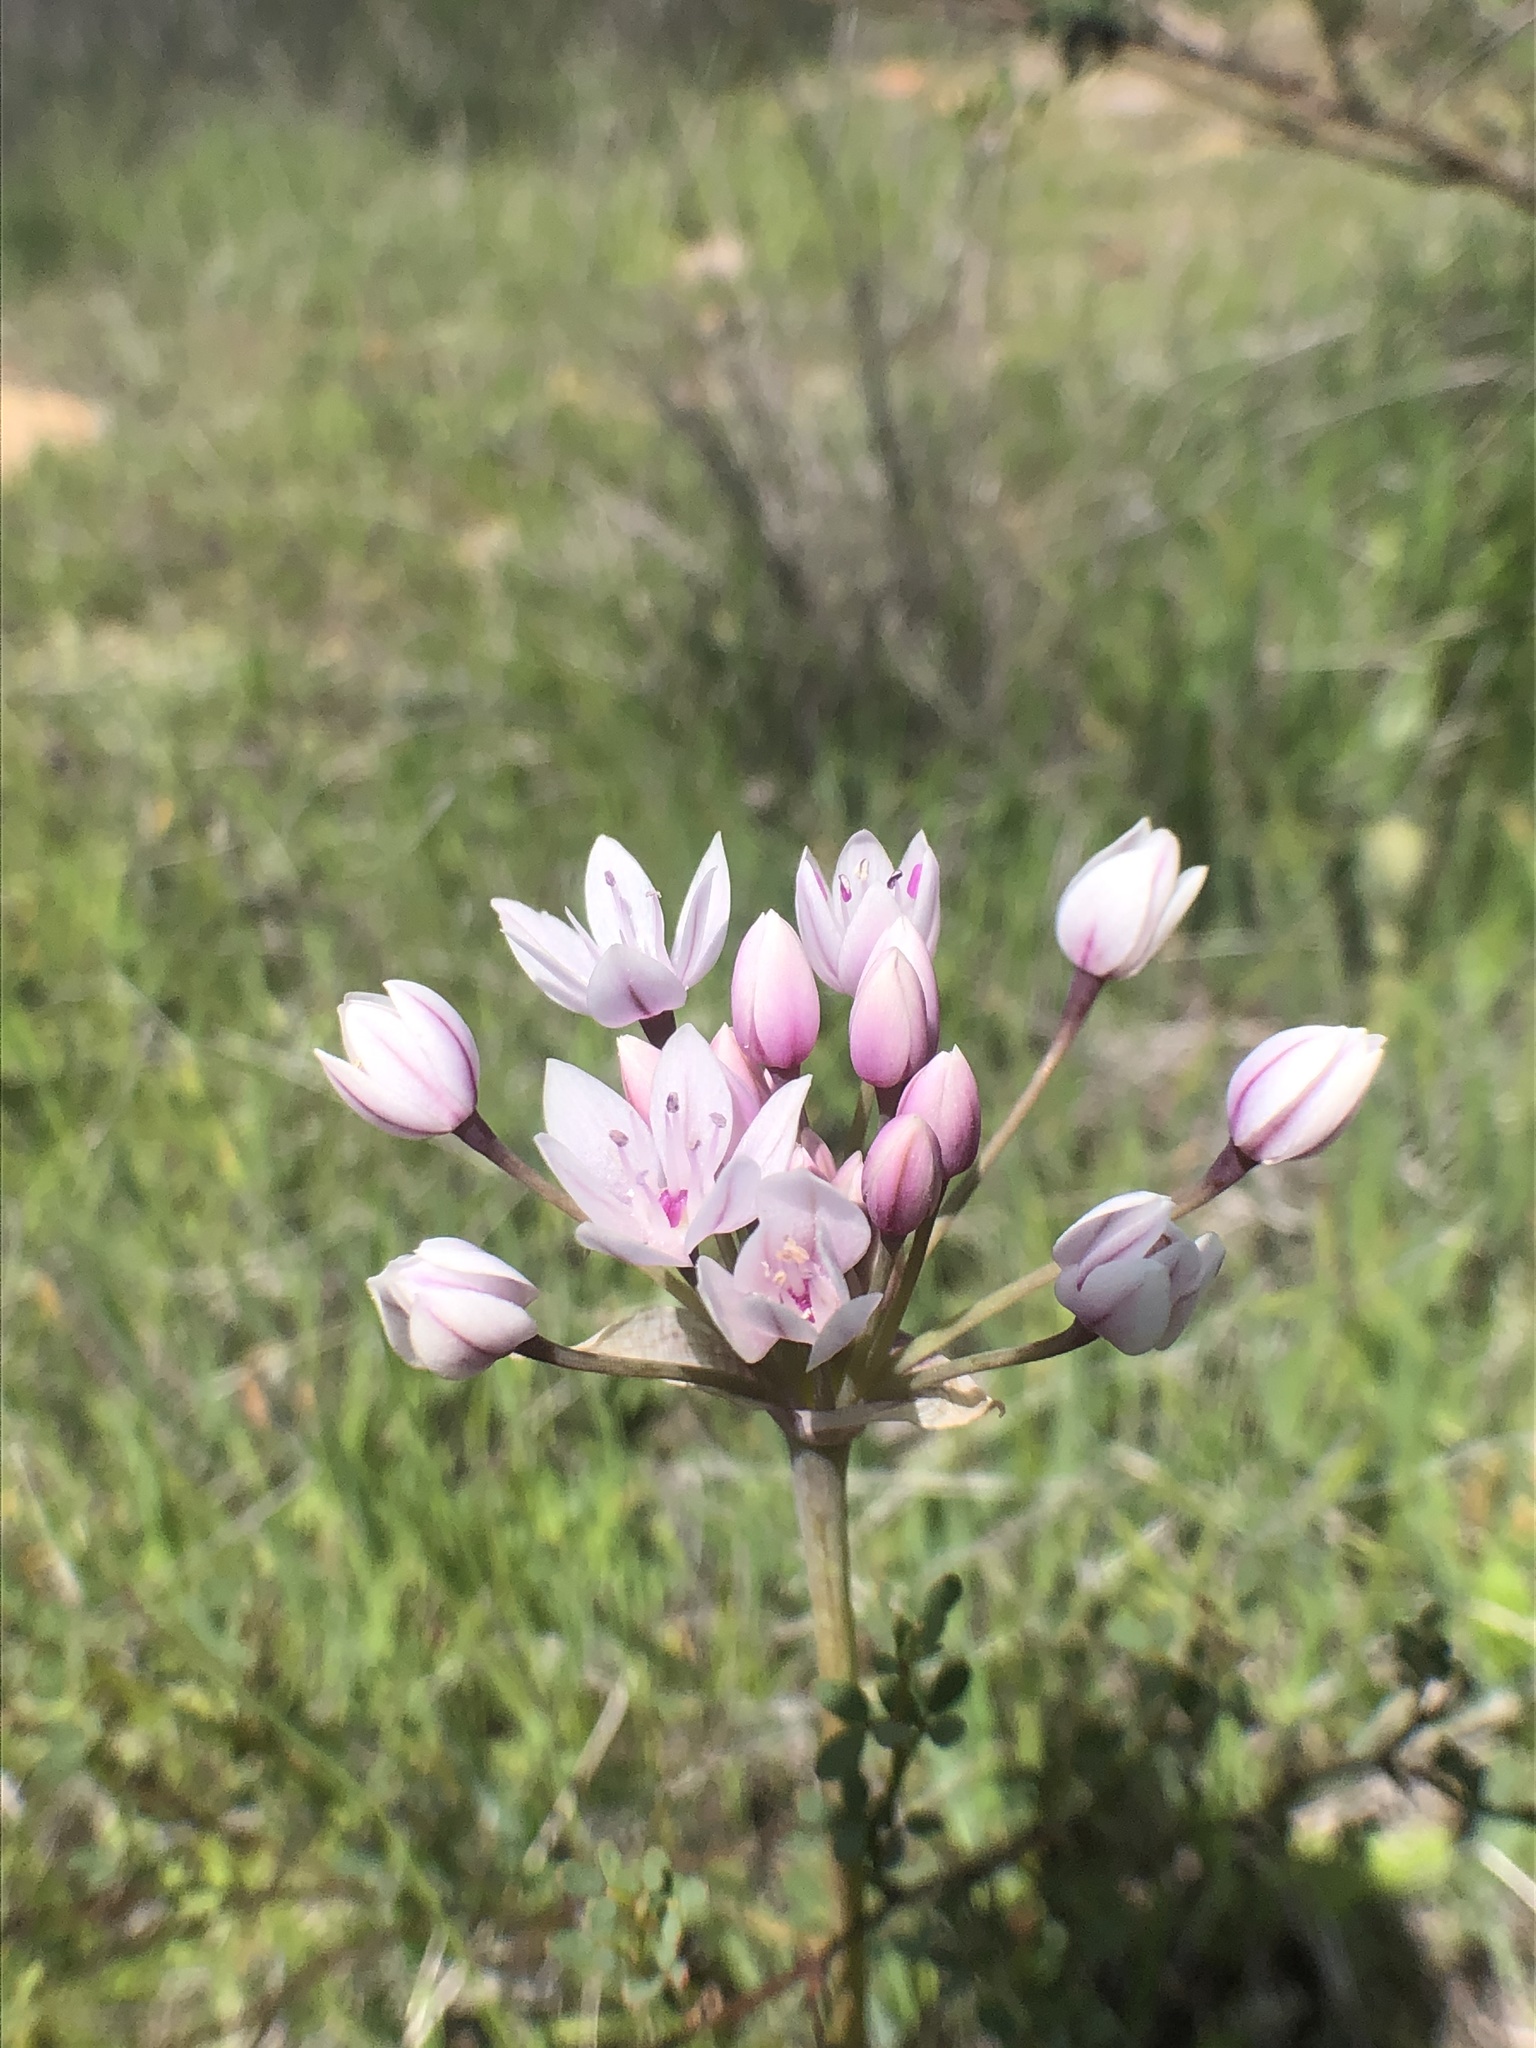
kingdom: Plantae
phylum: Tracheophyta
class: Liliopsida
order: Asparagales
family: Amaryllidaceae
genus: Allium
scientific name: Allium praecox
